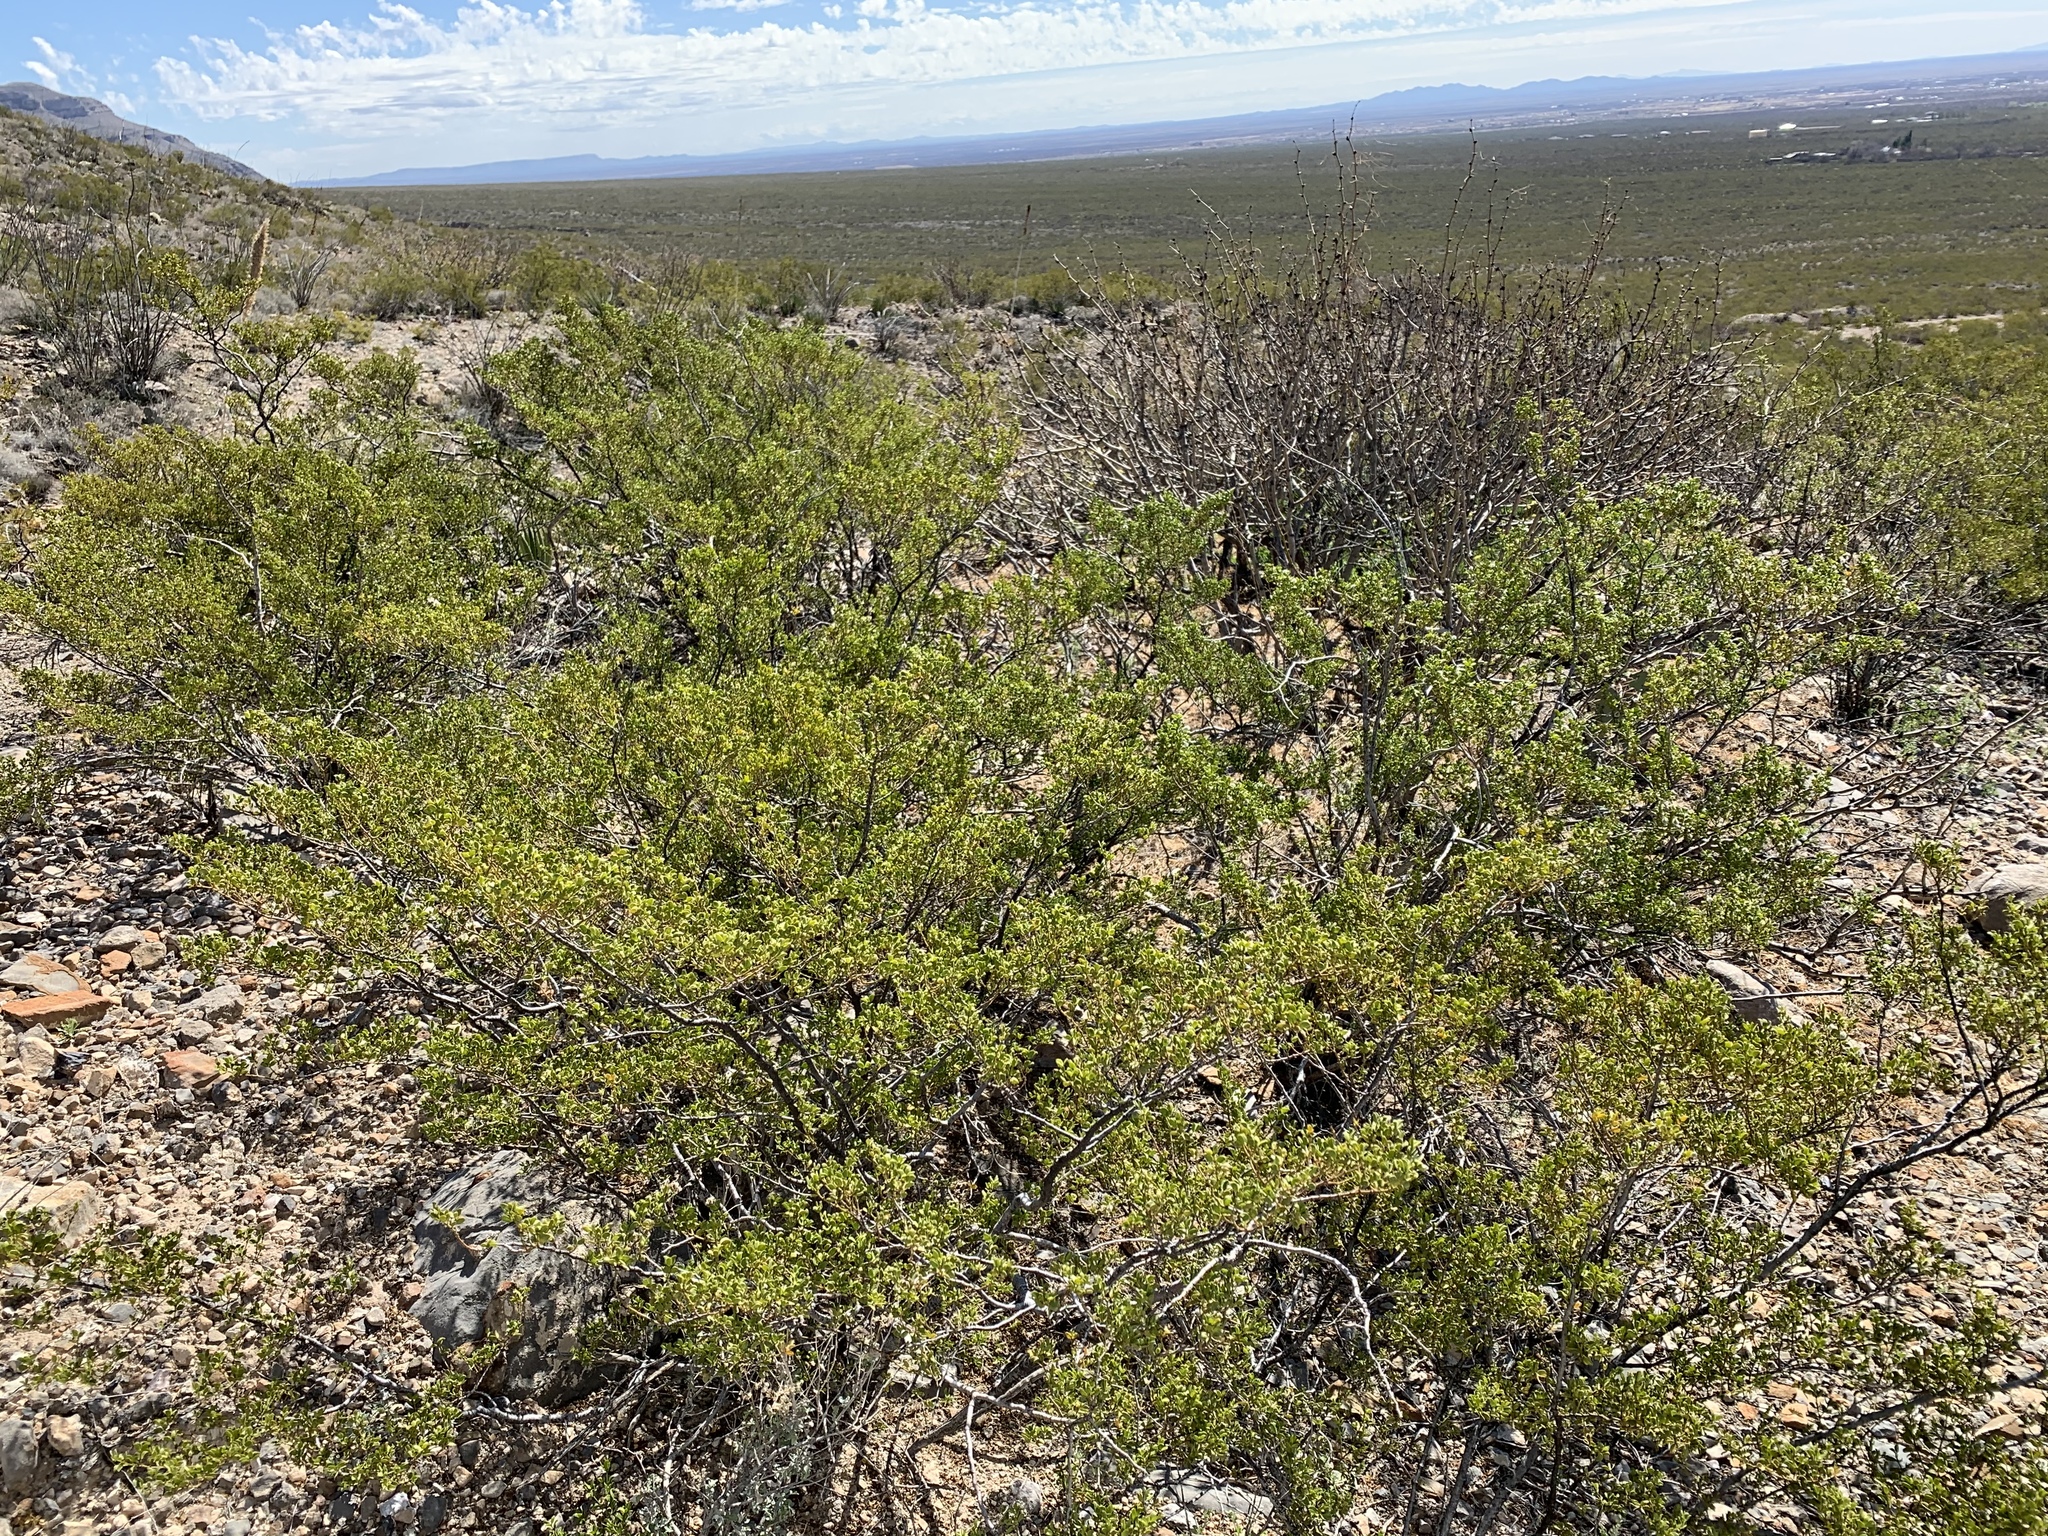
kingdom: Plantae
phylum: Tracheophyta
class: Magnoliopsida
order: Zygophyllales
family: Zygophyllaceae
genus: Larrea
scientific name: Larrea tridentata
